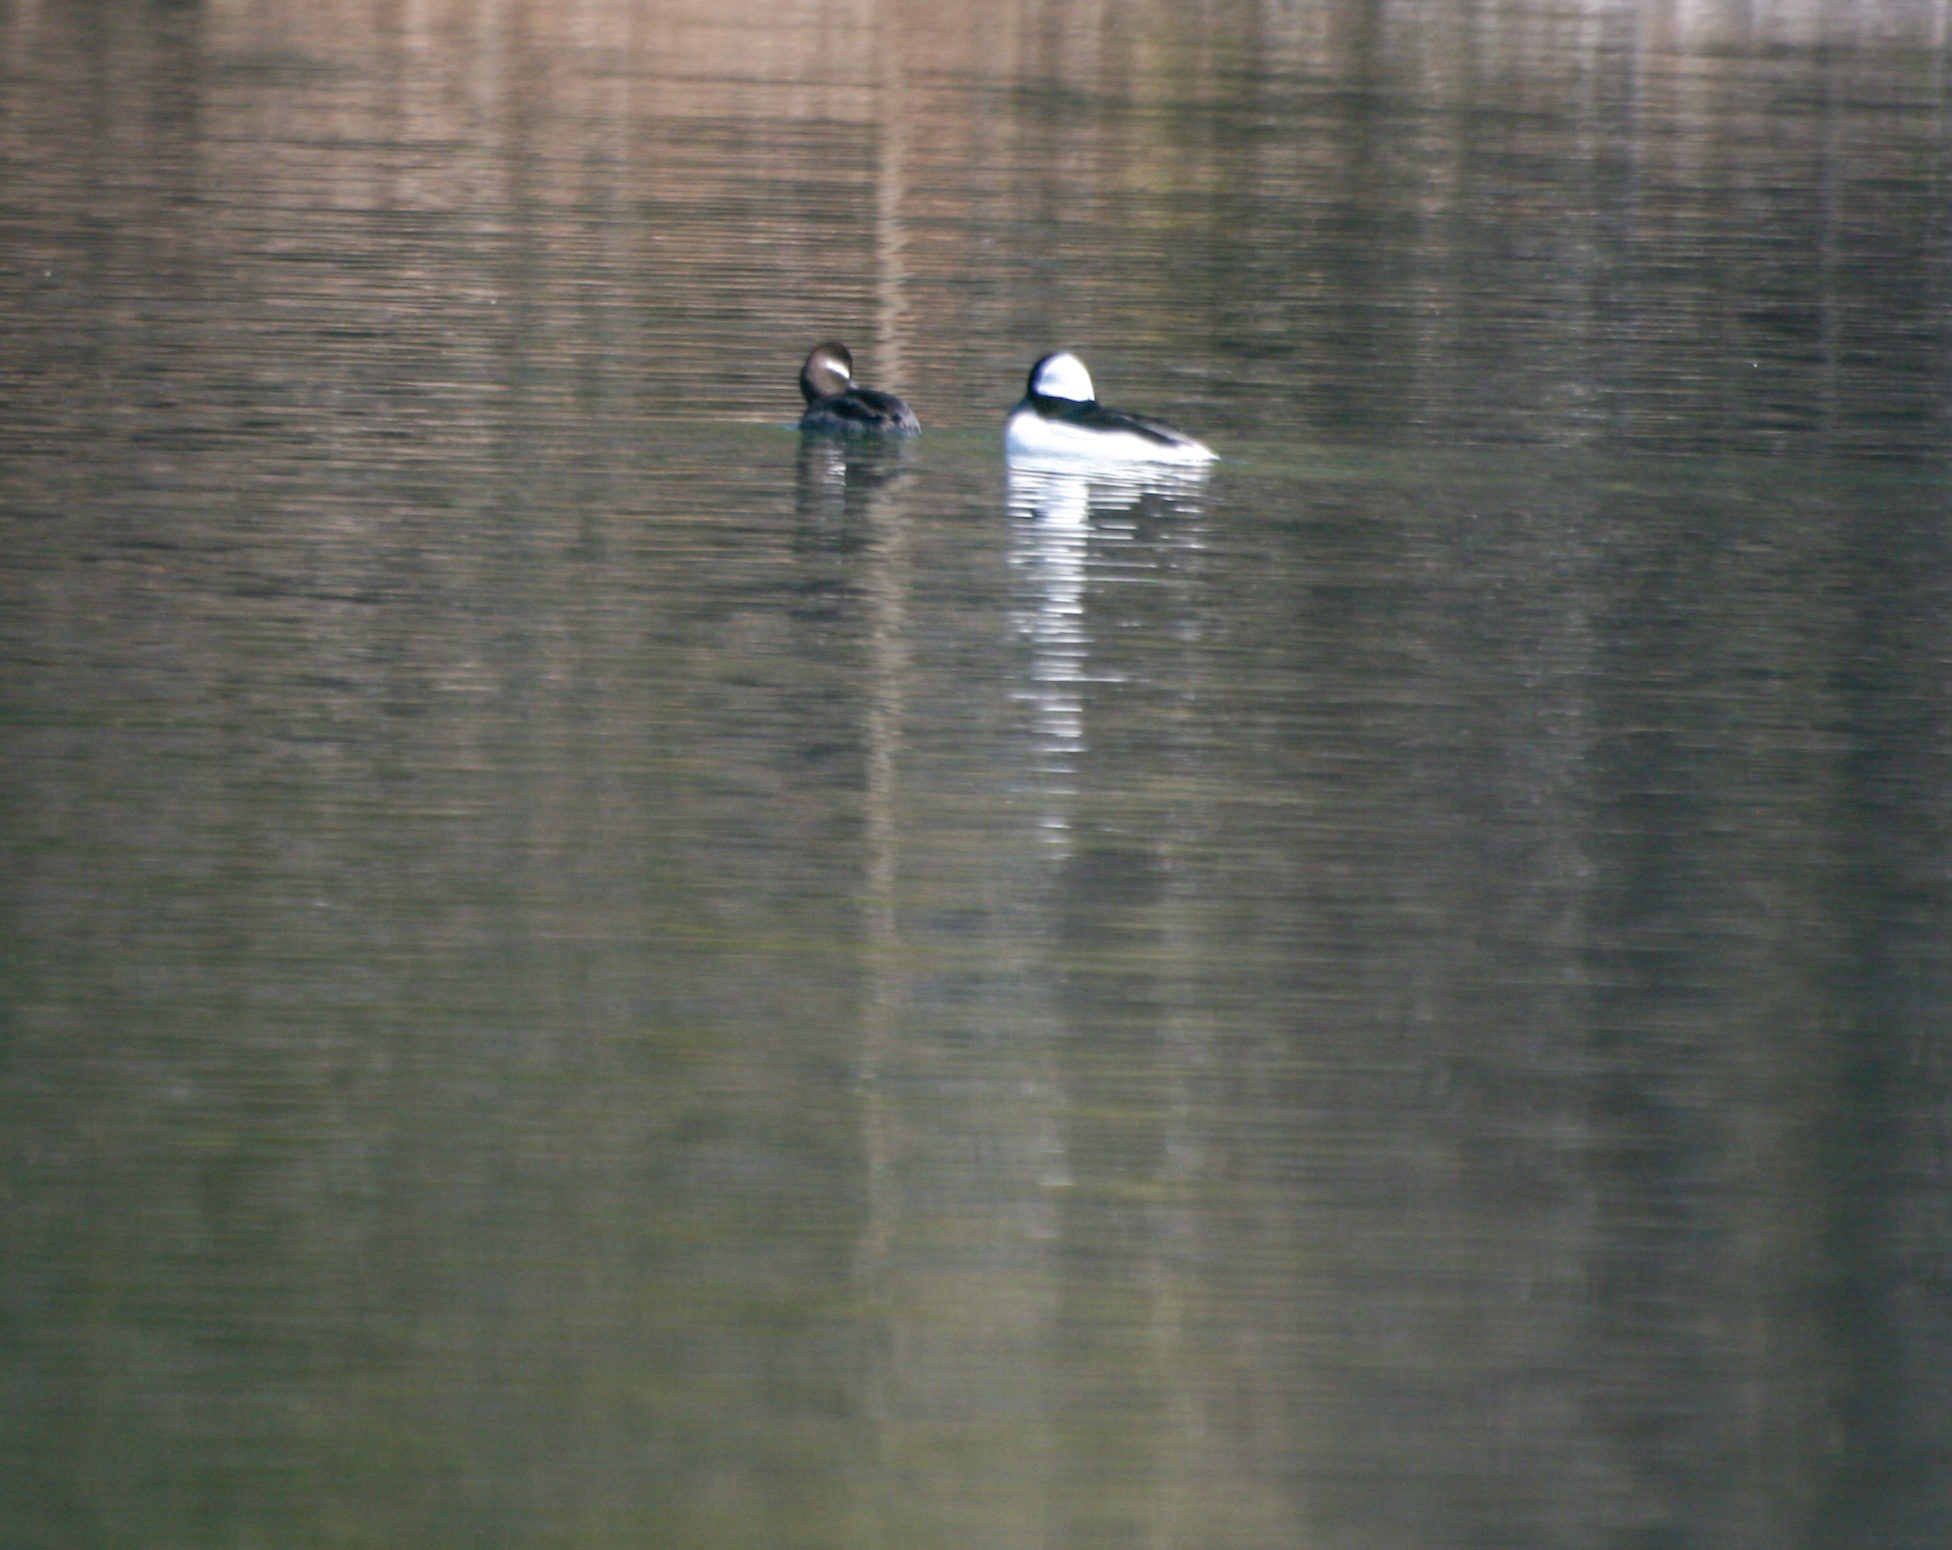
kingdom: Animalia
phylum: Chordata
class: Aves
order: Anseriformes
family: Anatidae
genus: Bucephala
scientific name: Bucephala albeola
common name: Bufflehead
